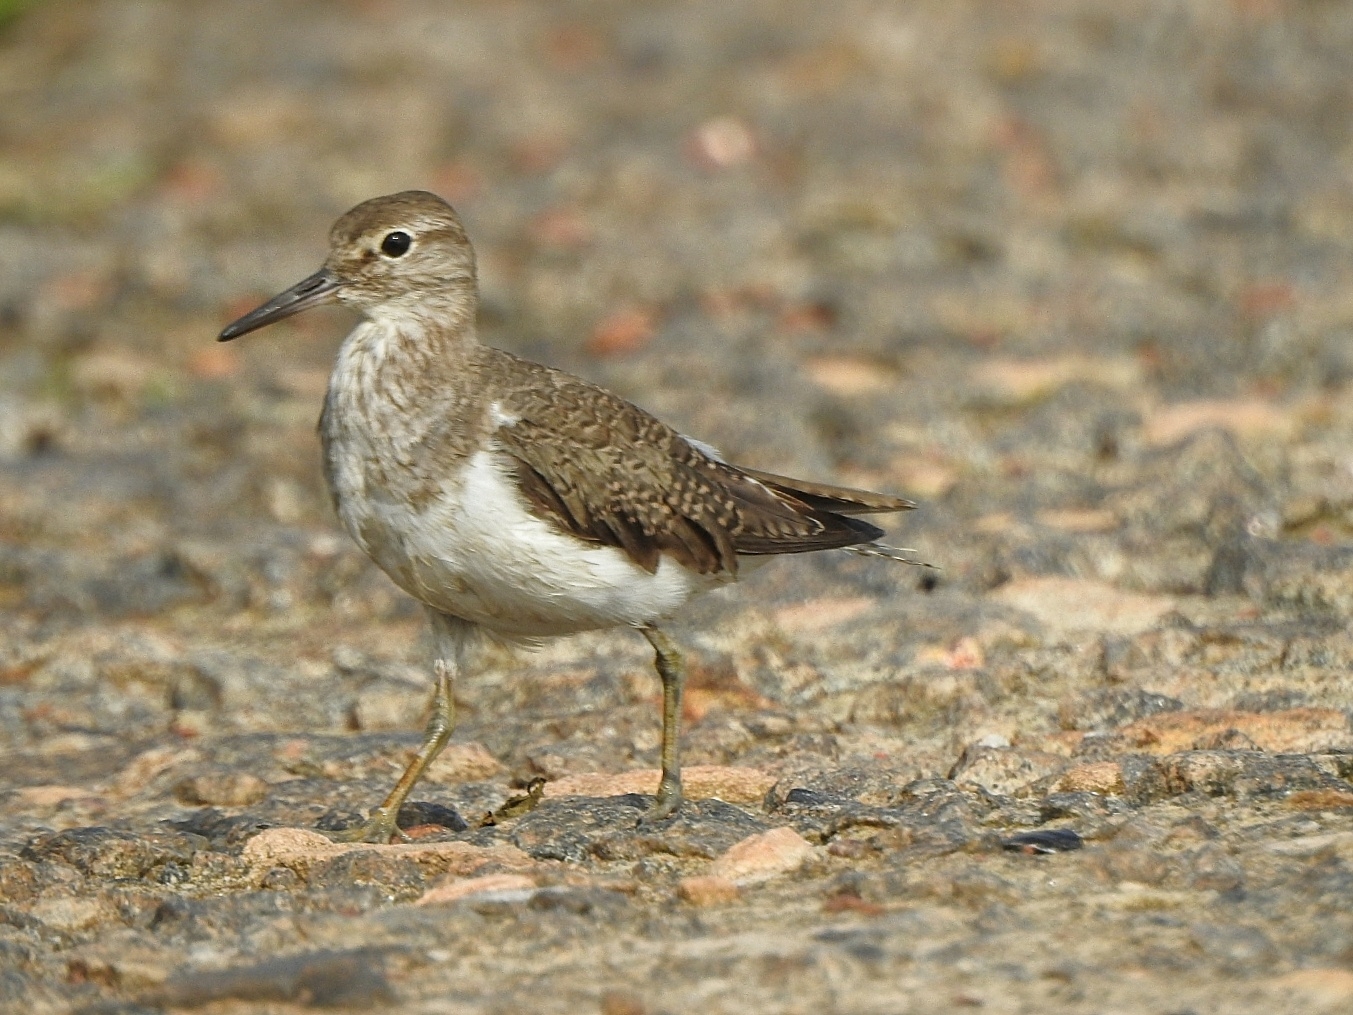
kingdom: Animalia
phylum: Chordata
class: Aves
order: Charadriiformes
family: Scolopacidae
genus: Actitis
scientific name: Actitis hypoleucos
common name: Common sandpiper
